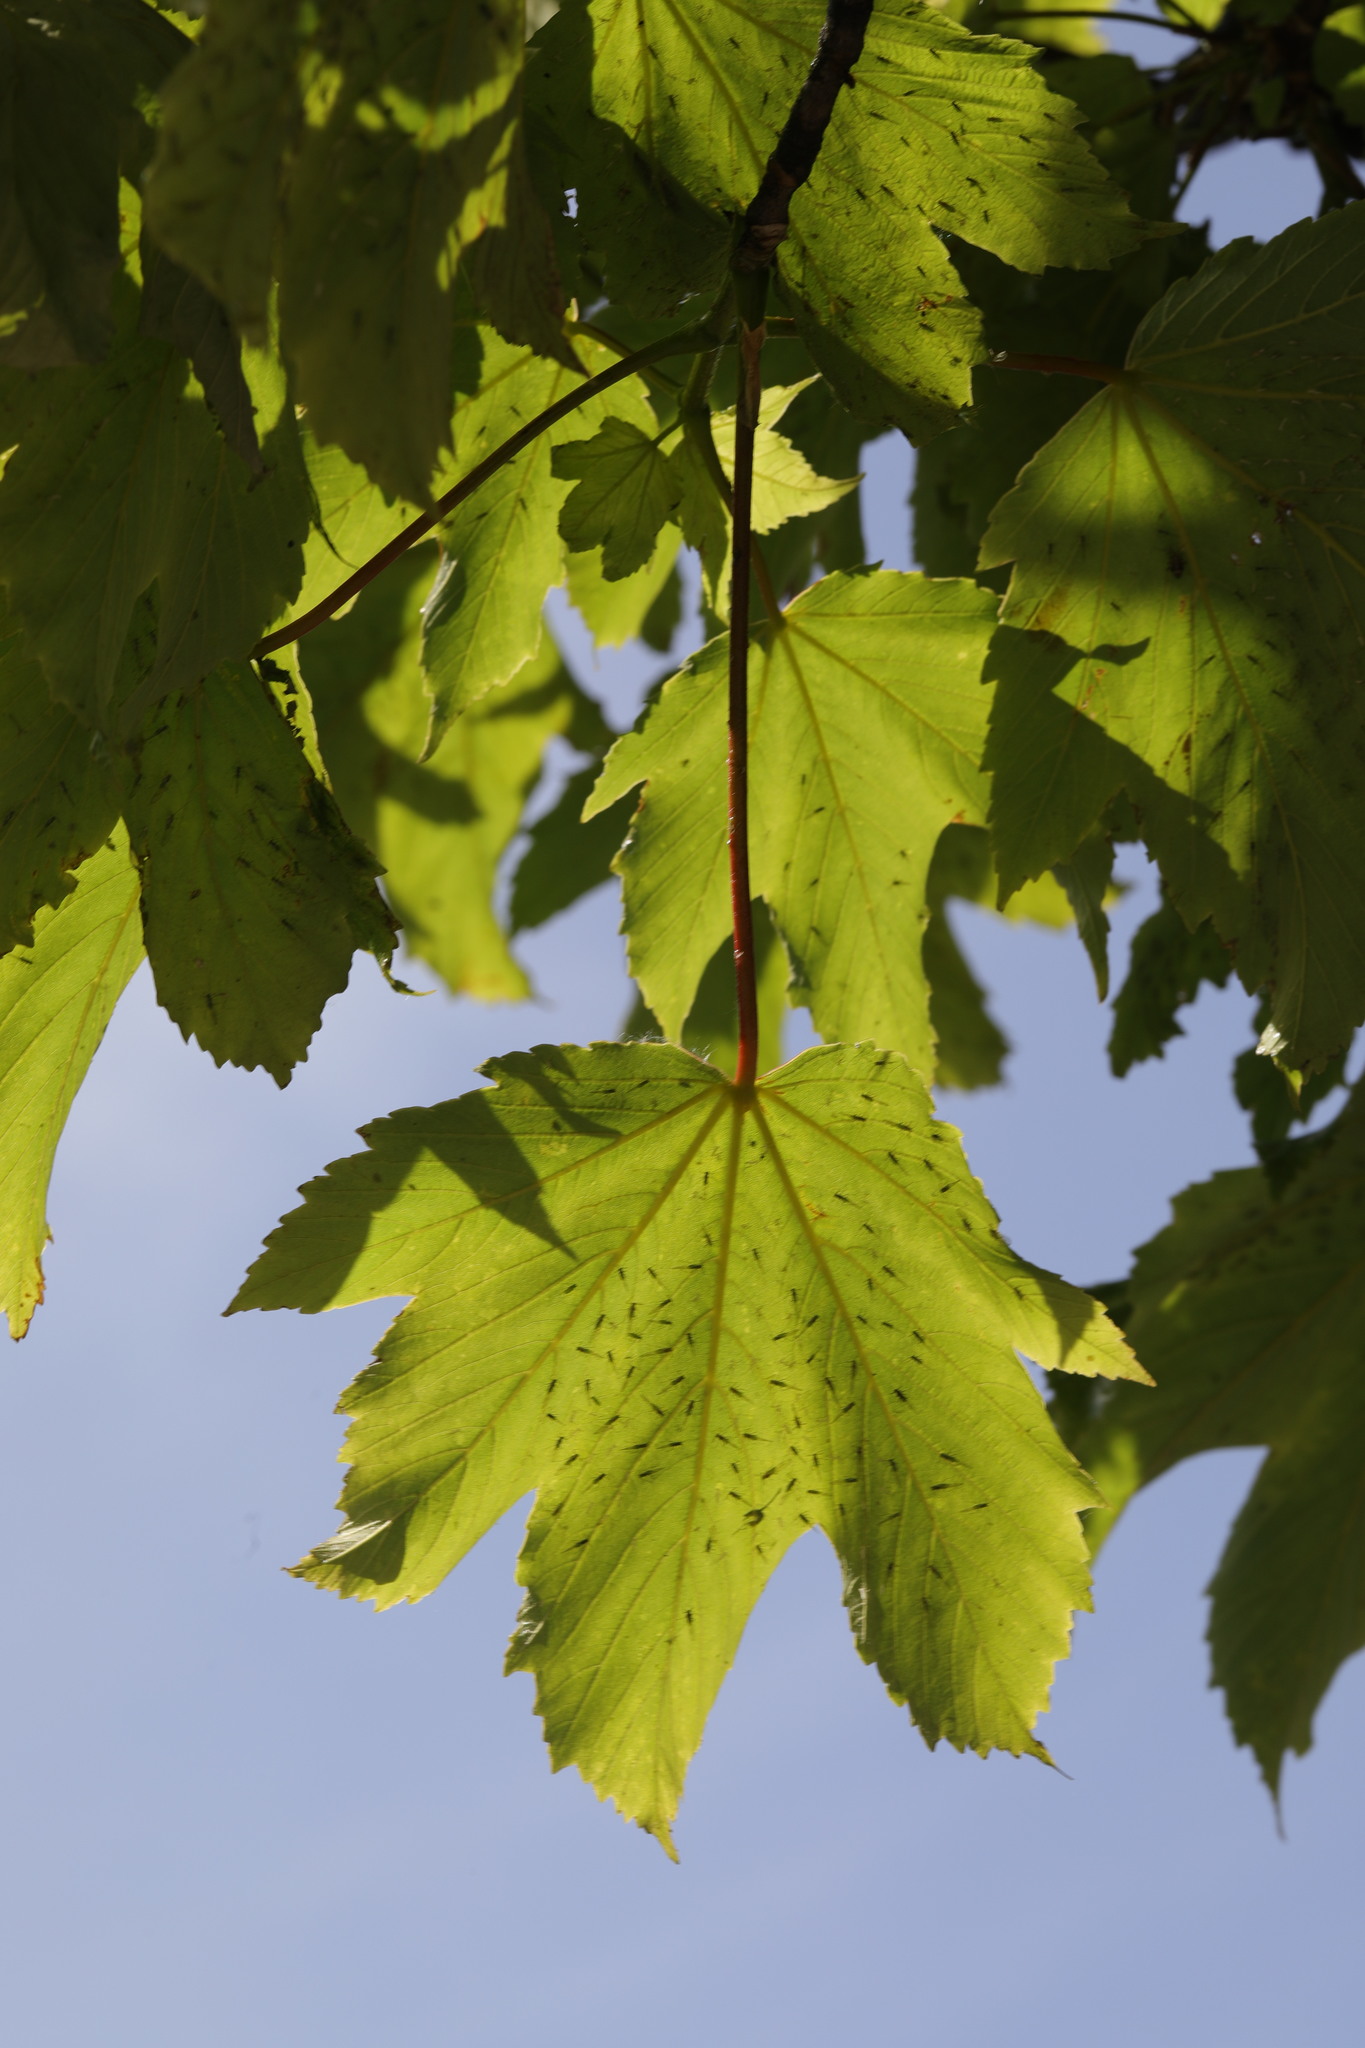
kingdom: Plantae
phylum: Tracheophyta
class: Magnoliopsida
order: Sapindales
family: Sapindaceae
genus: Acer
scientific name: Acer pseudoplatanus
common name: Sycamore
